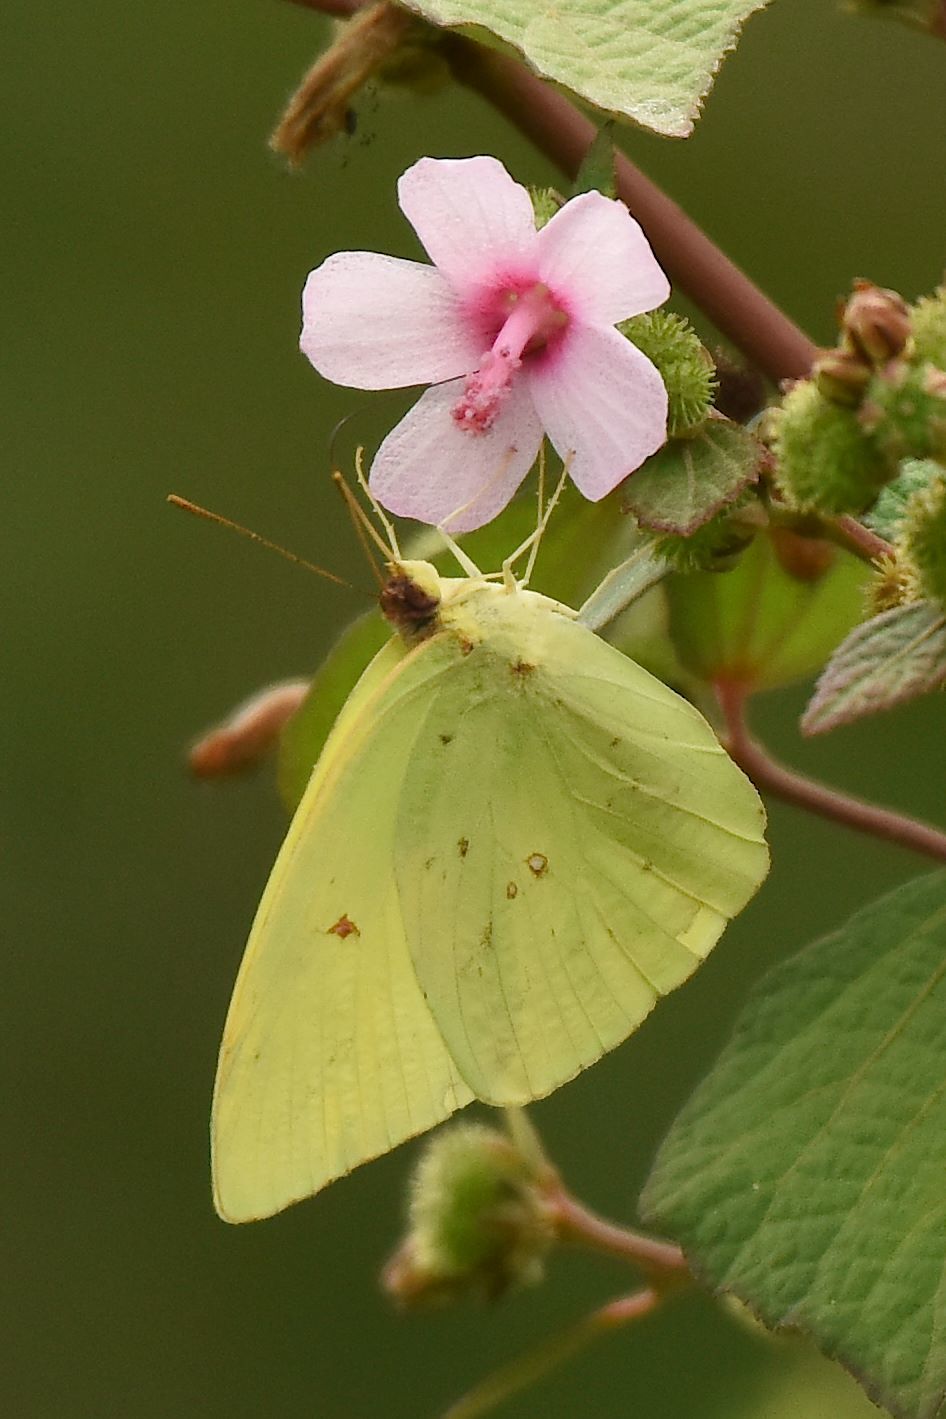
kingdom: Animalia
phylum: Arthropoda
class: Insecta
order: Lepidoptera
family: Pieridae
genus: Phoebis
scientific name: Phoebis sennae
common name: Cloudless sulphur
